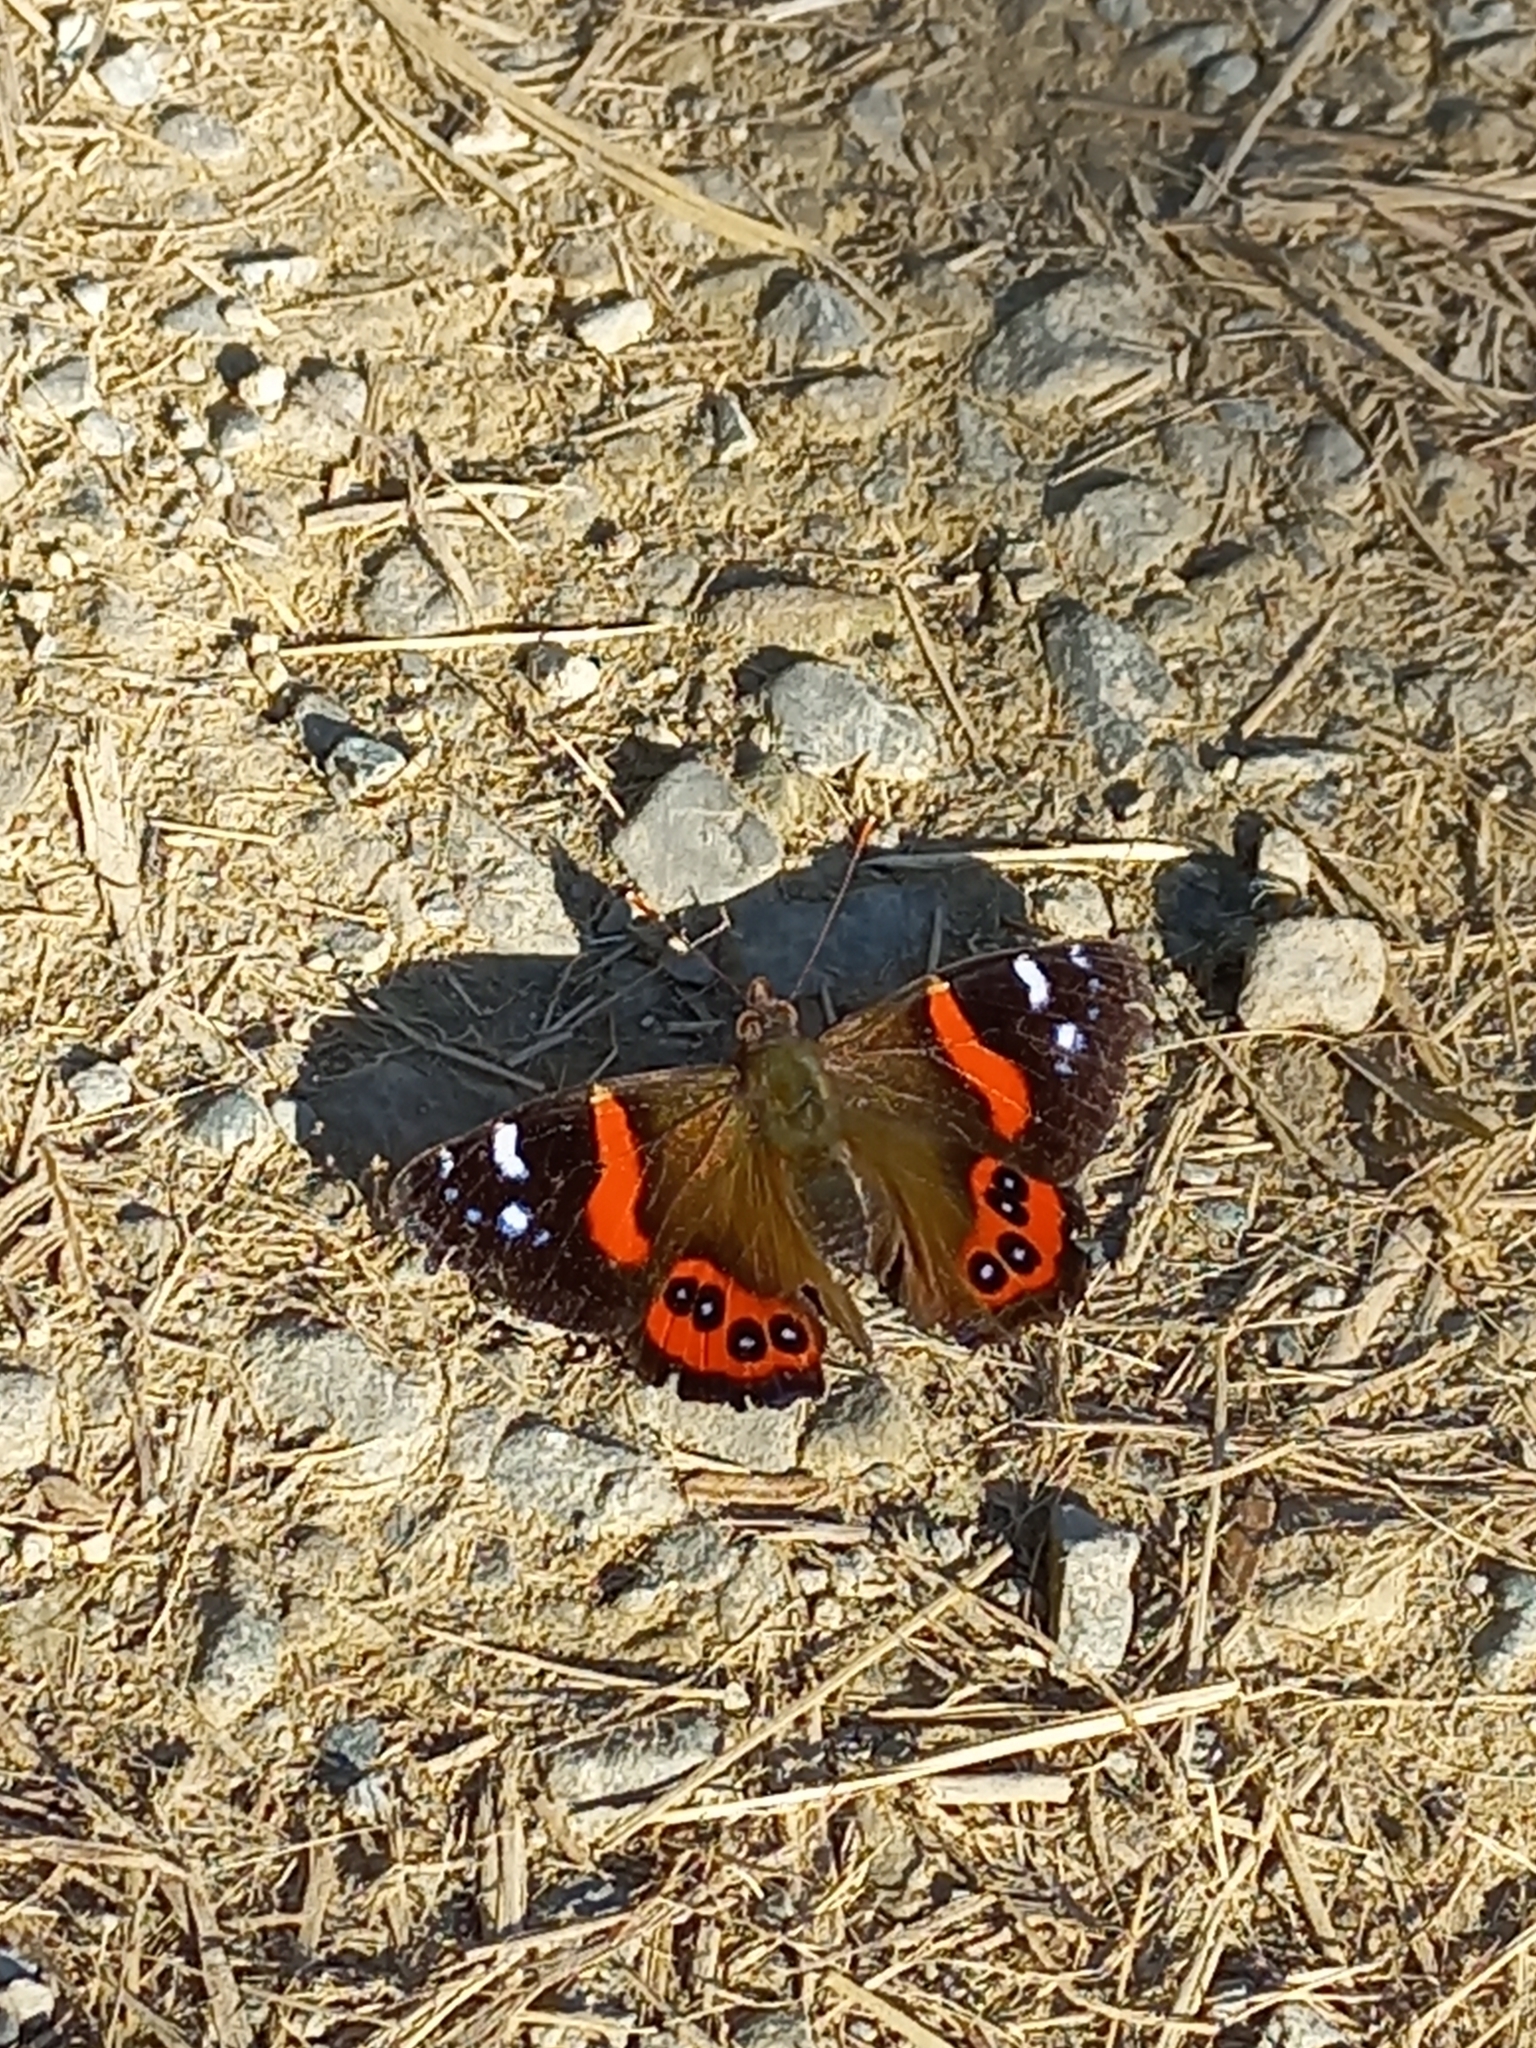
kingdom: Animalia
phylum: Arthropoda
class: Insecta
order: Lepidoptera
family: Nymphalidae
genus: Vanessa
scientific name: Vanessa gonerilla
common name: New zealand red admiral
